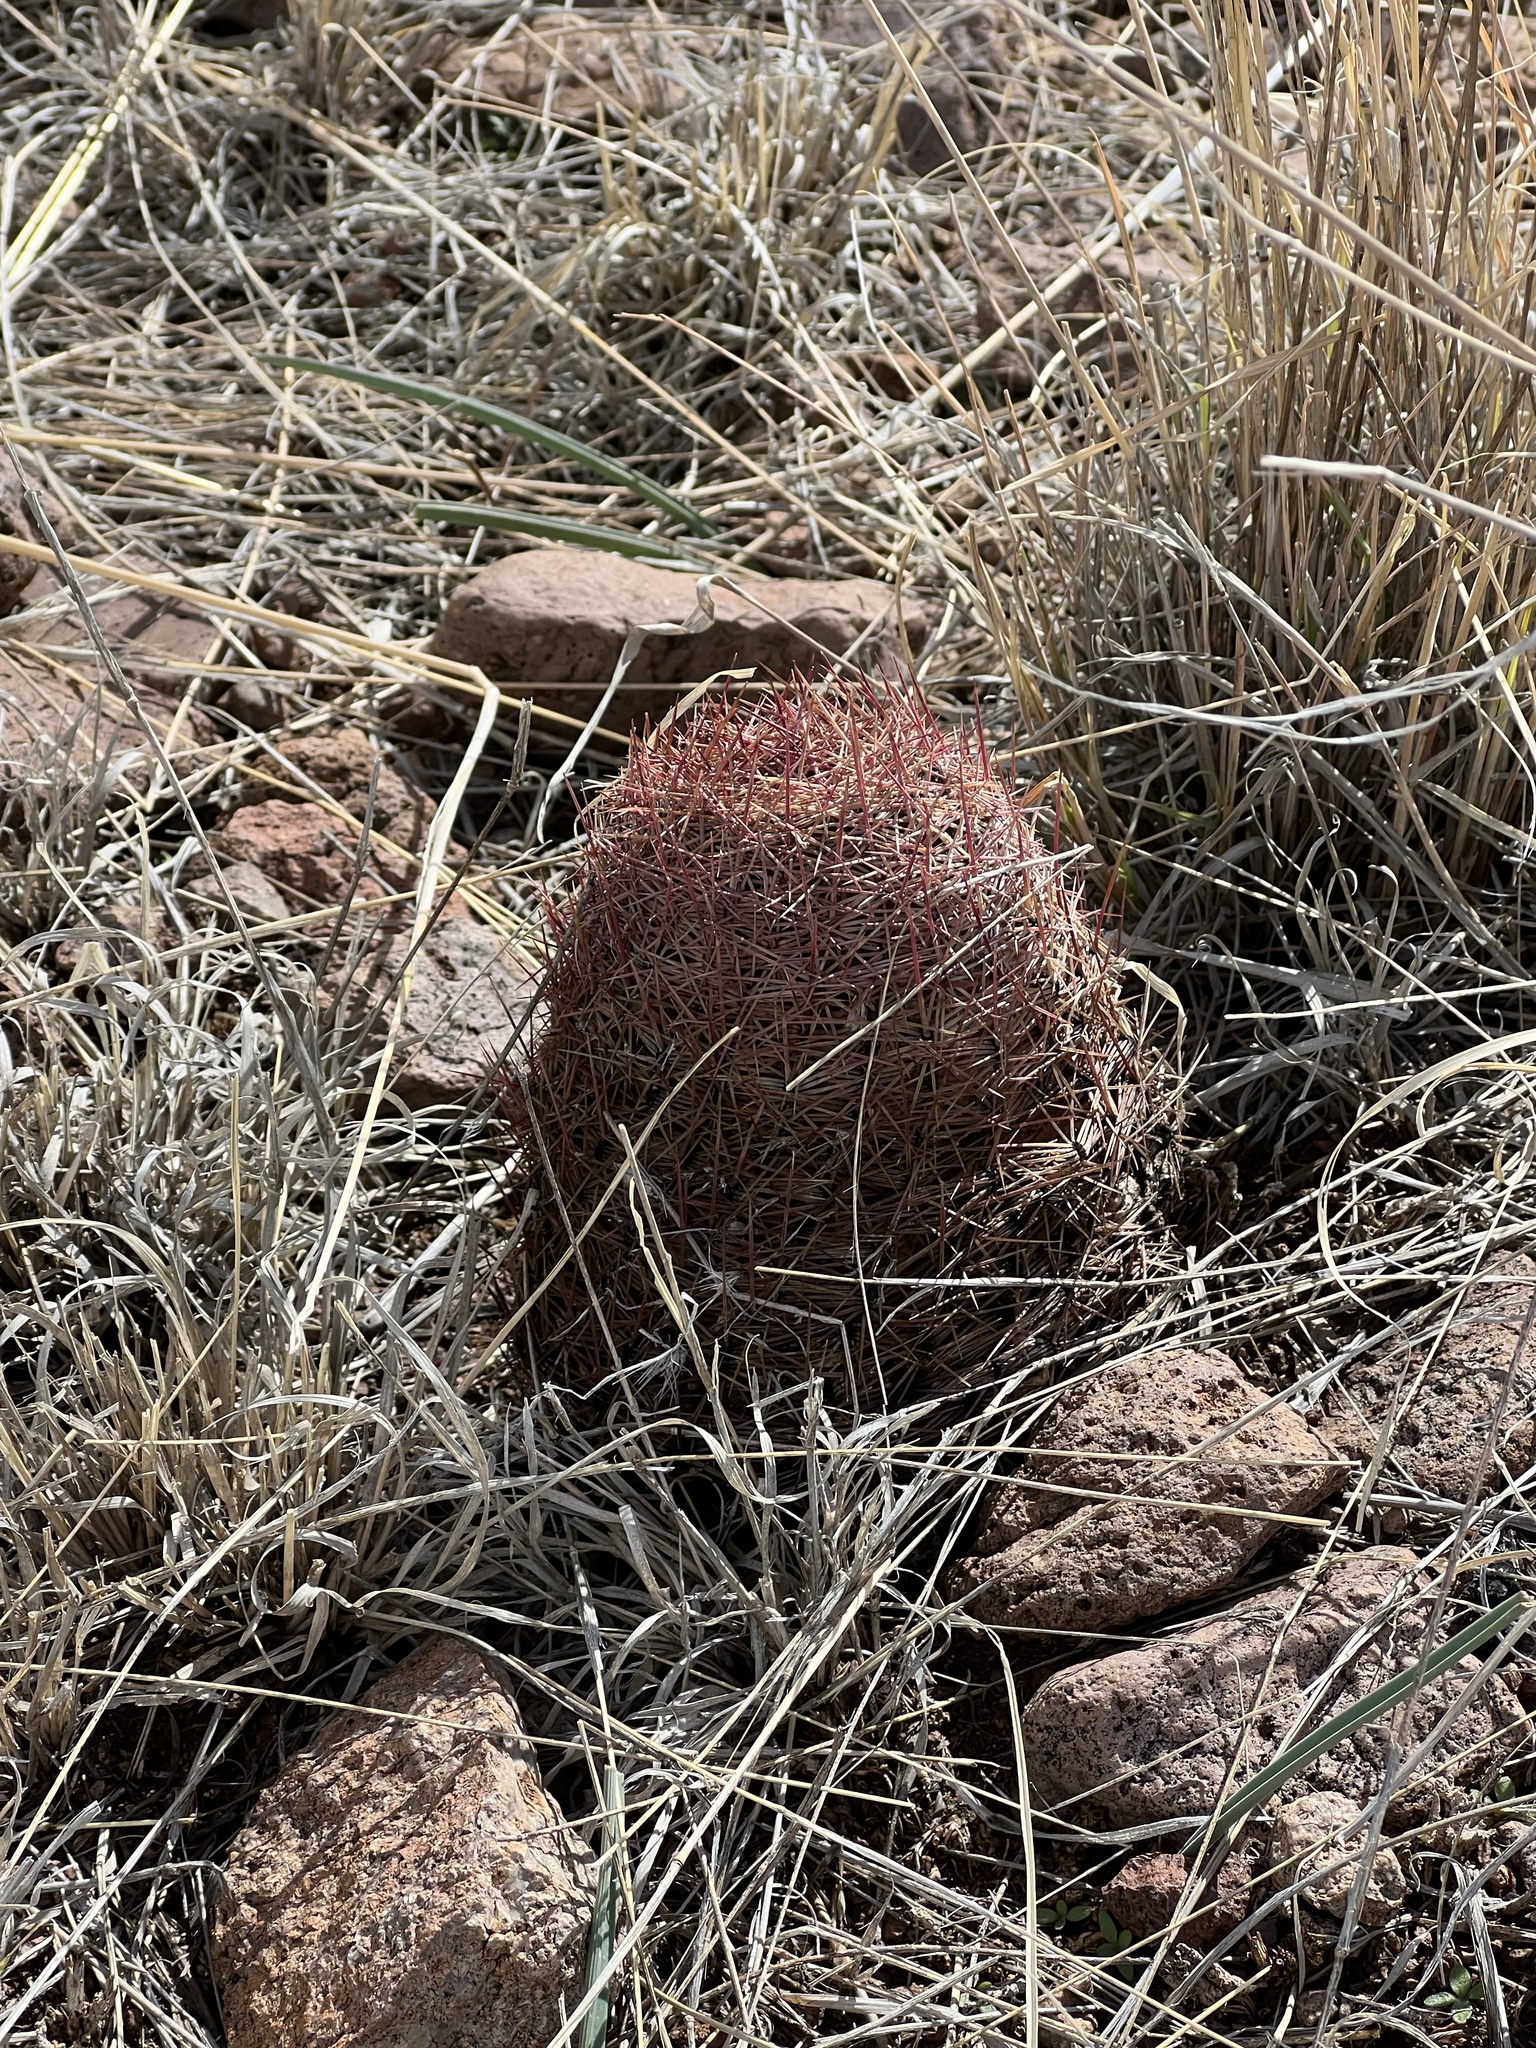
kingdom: Plantae
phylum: Tracheophyta
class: Magnoliopsida
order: Caryophyllales
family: Cactaceae
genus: Sclerocactus
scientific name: Sclerocactus johnsonii
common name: Eight-spine fishhook cactus
